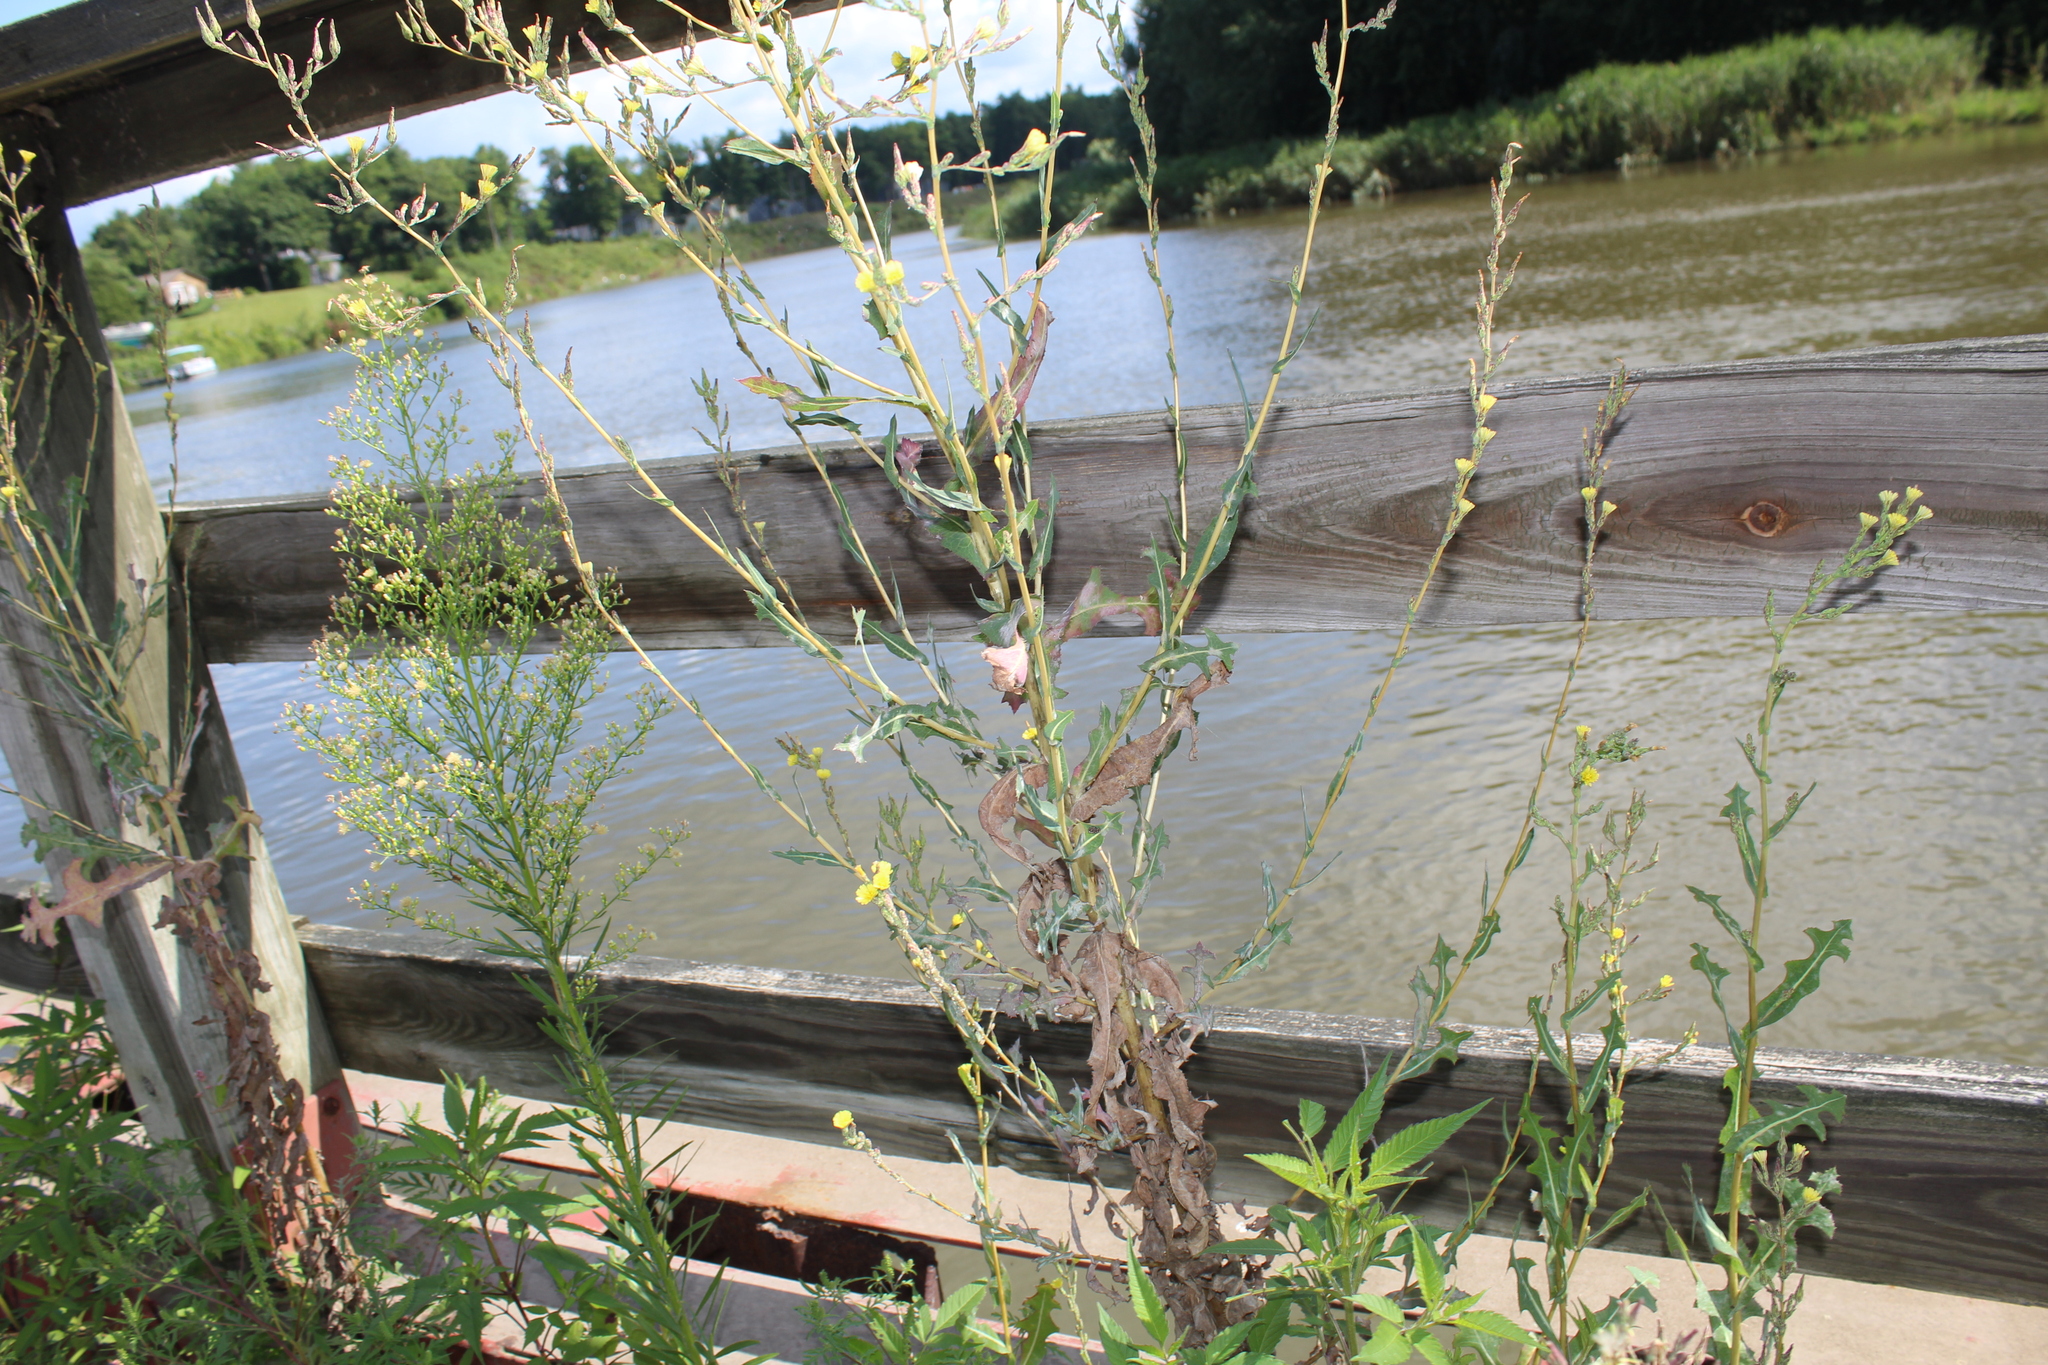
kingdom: Plantae
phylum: Tracheophyta
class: Magnoliopsida
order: Asterales
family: Asteraceae
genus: Lactuca
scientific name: Lactuca serriola
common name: Prickly lettuce
